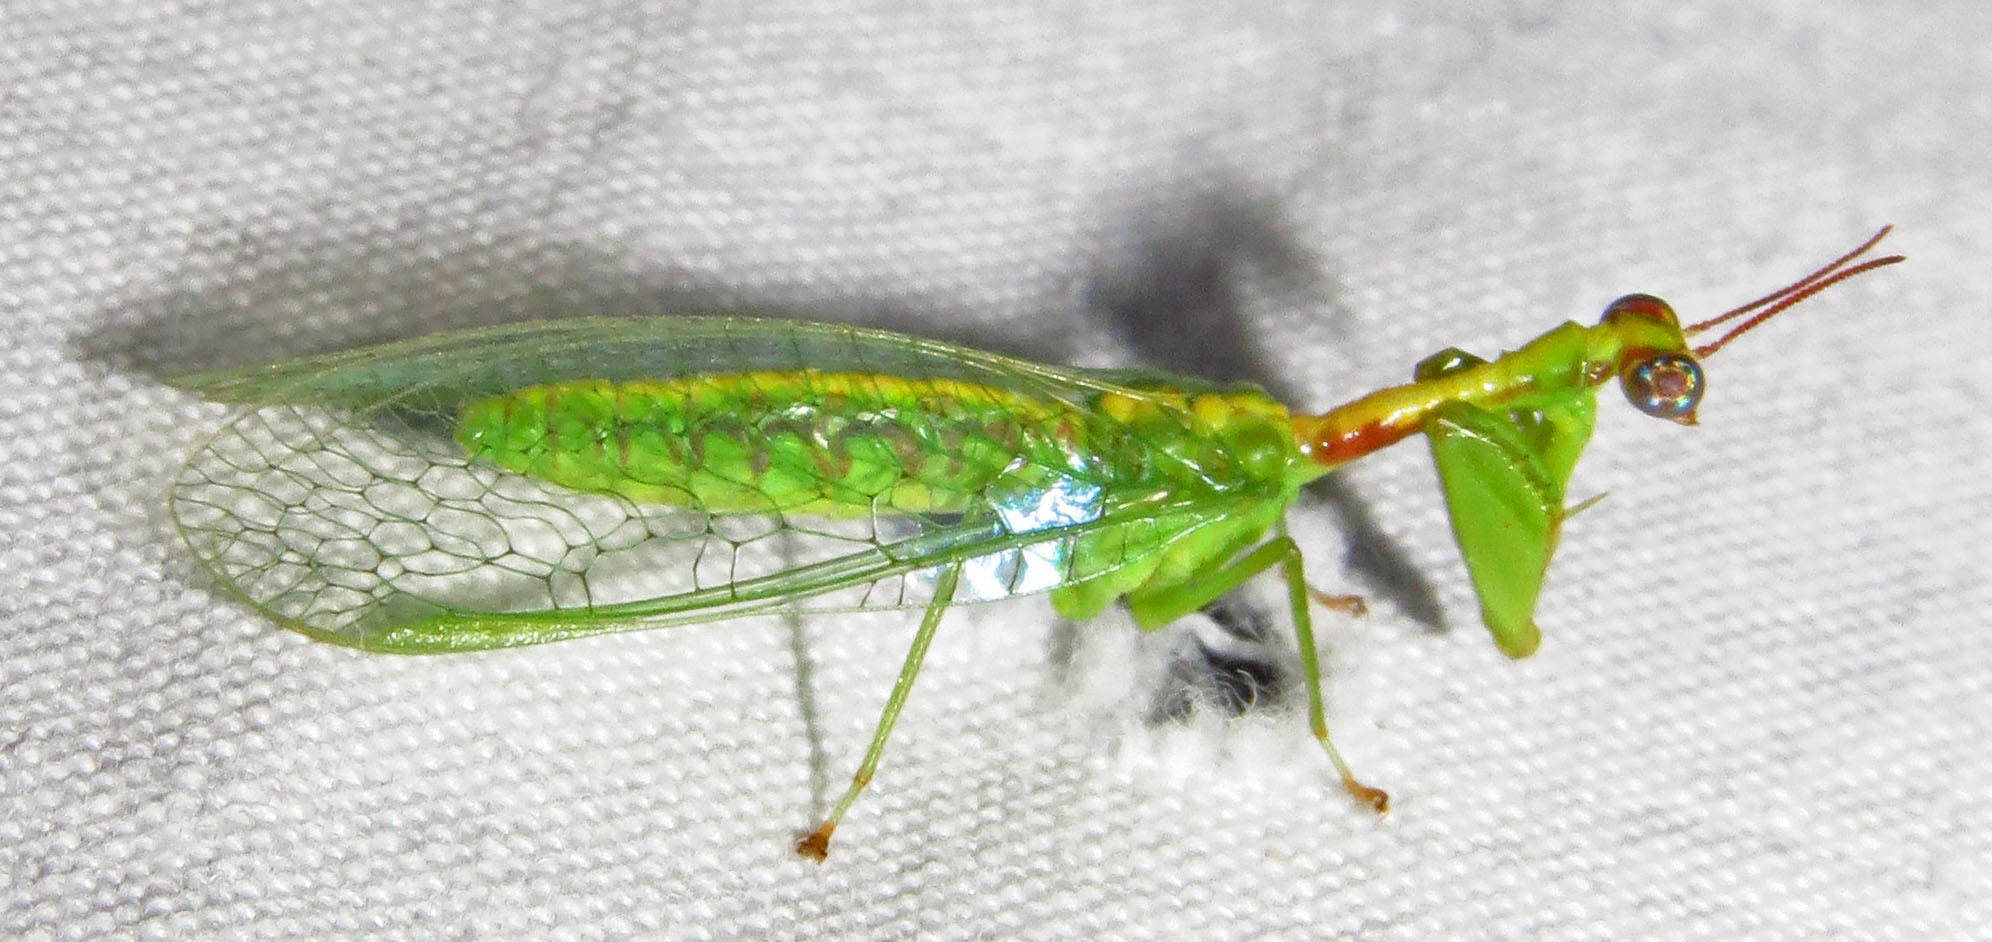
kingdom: Animalia
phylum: Arthropoda
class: Insecta
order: Neuroptera
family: Mantispidae
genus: Zeugomantispa
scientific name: Zeugomantispa minuta
